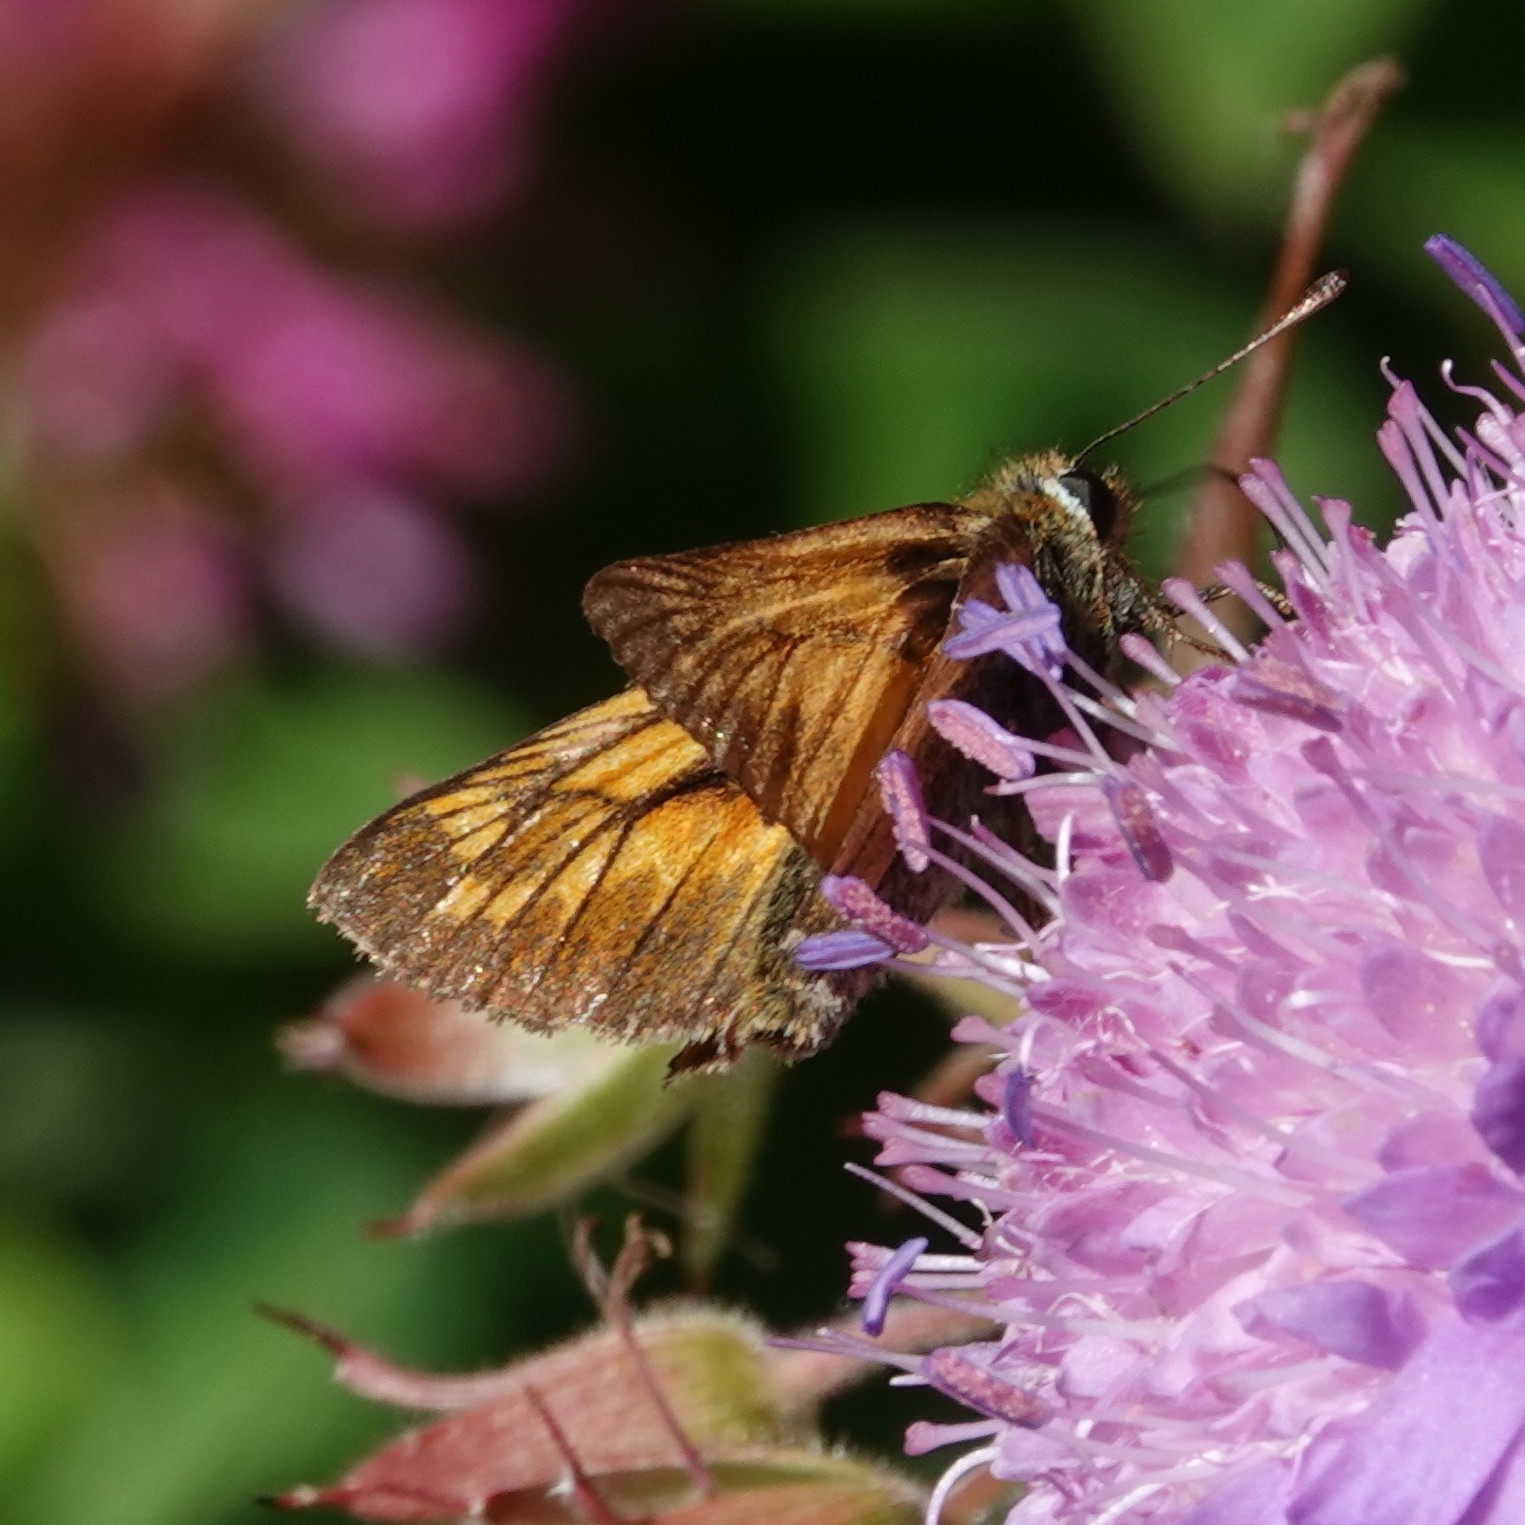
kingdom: Animalia
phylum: Arthropoda
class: Insecta
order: Lepidoptera
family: Hesperiidae
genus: Ochlodes
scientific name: Ochlodes venata
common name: Large skipper
